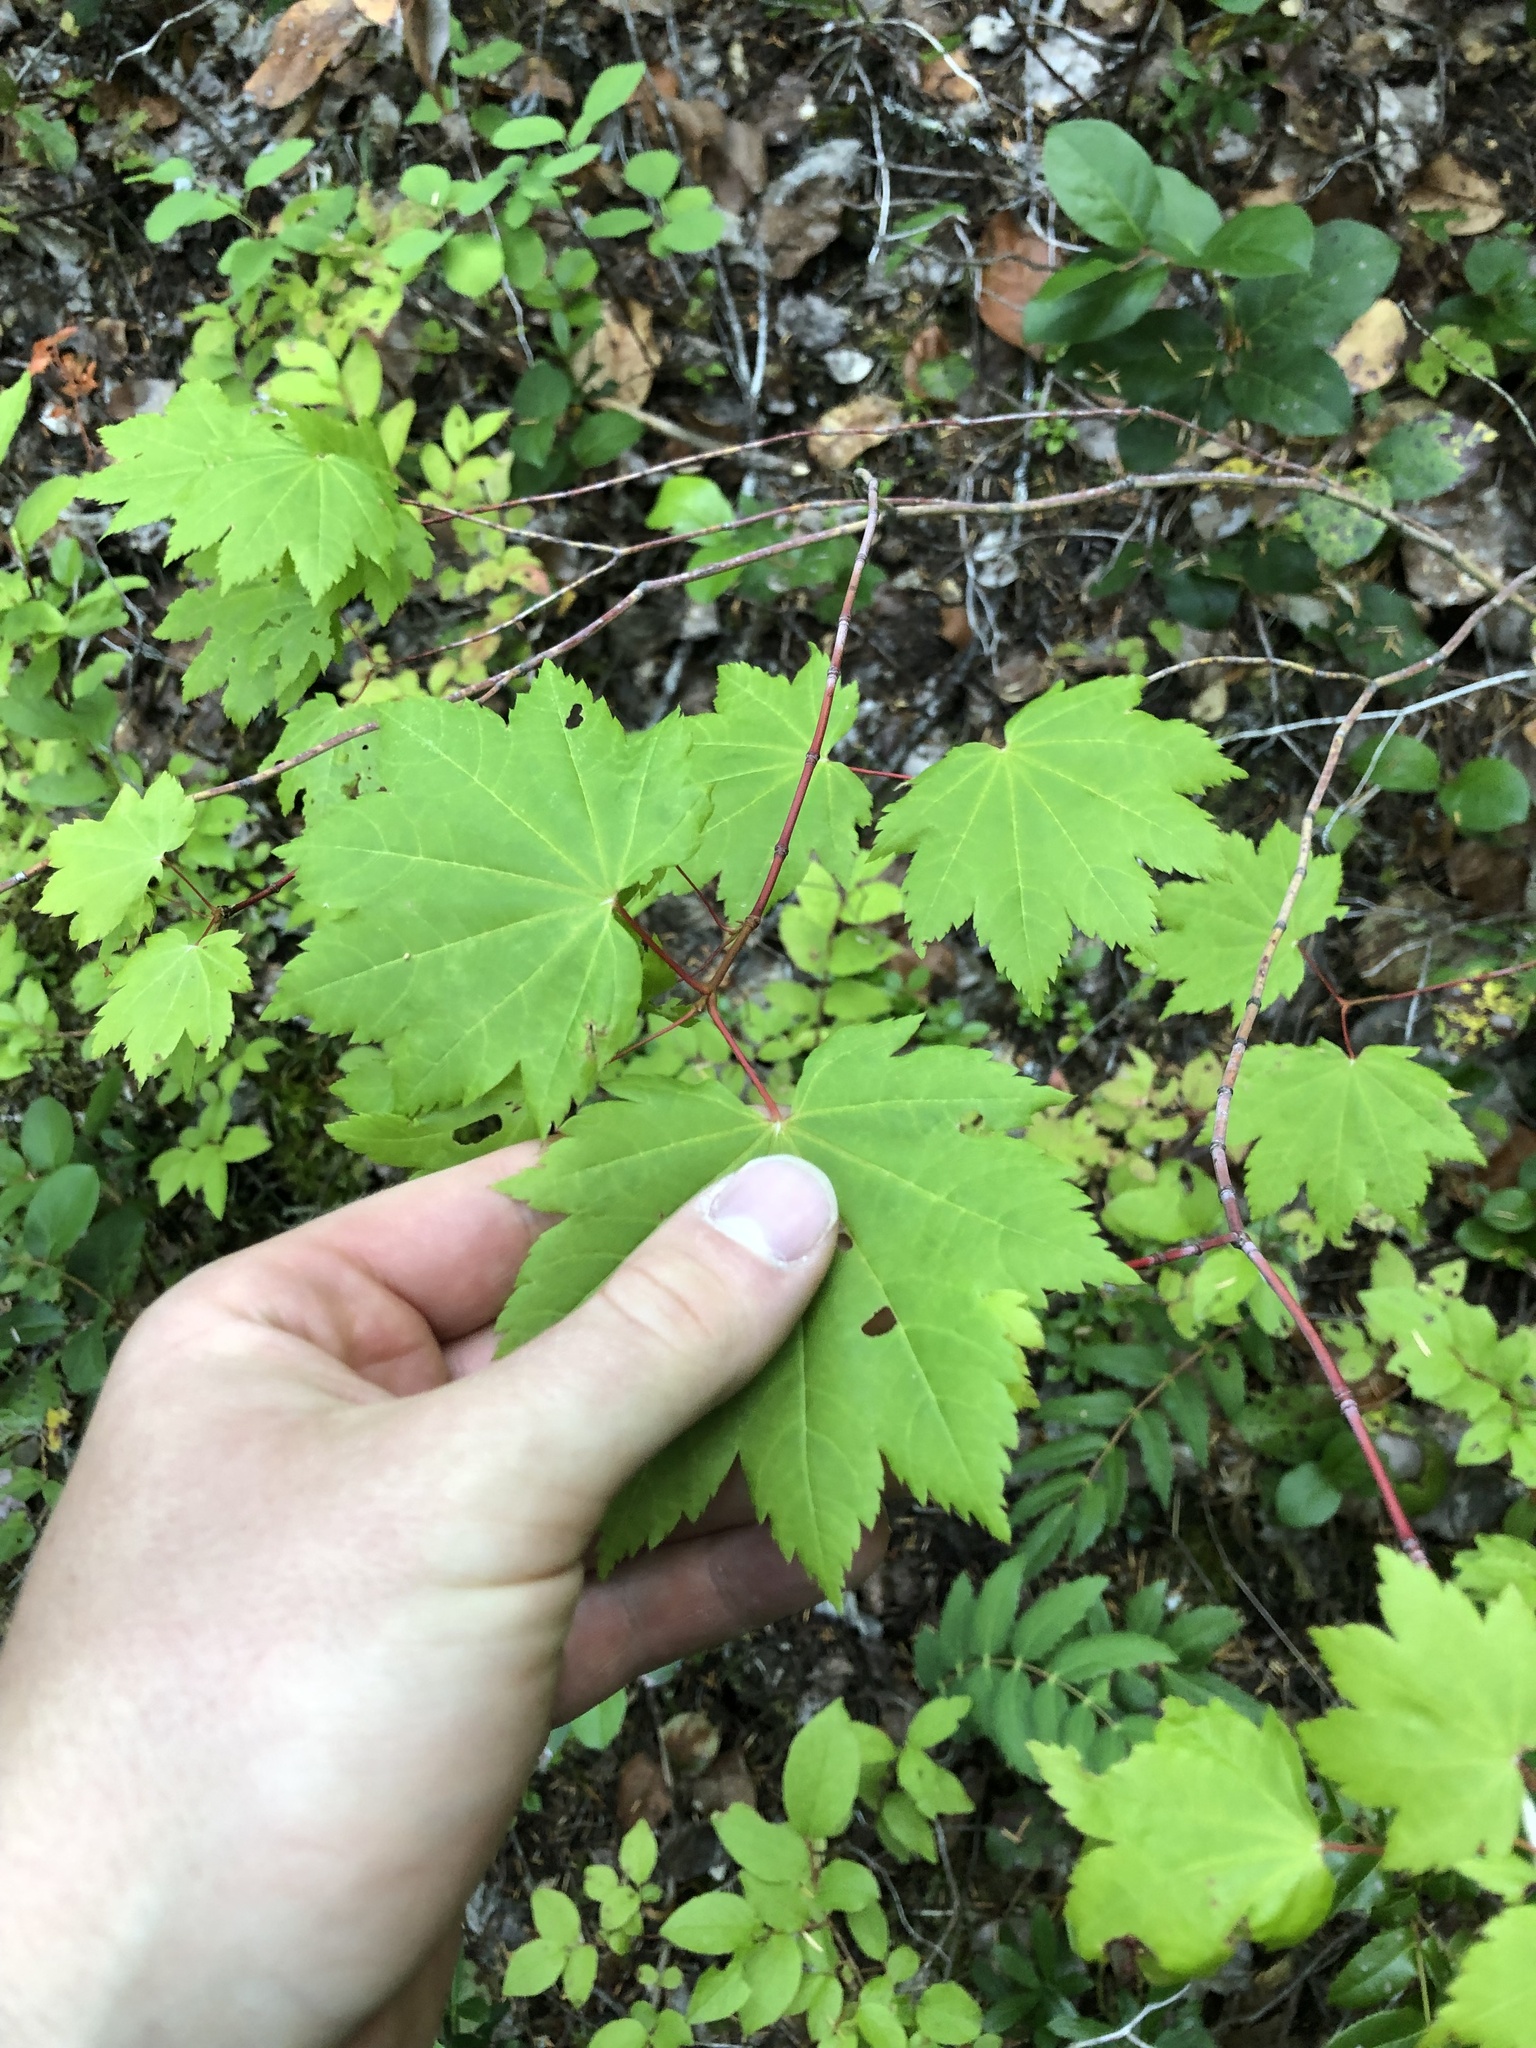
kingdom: Plantae
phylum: Tracheophyta
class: Magnoliopsida
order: Sapindales
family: Sapindaceae
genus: Acer
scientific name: Acer circinatum
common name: Vine maple
